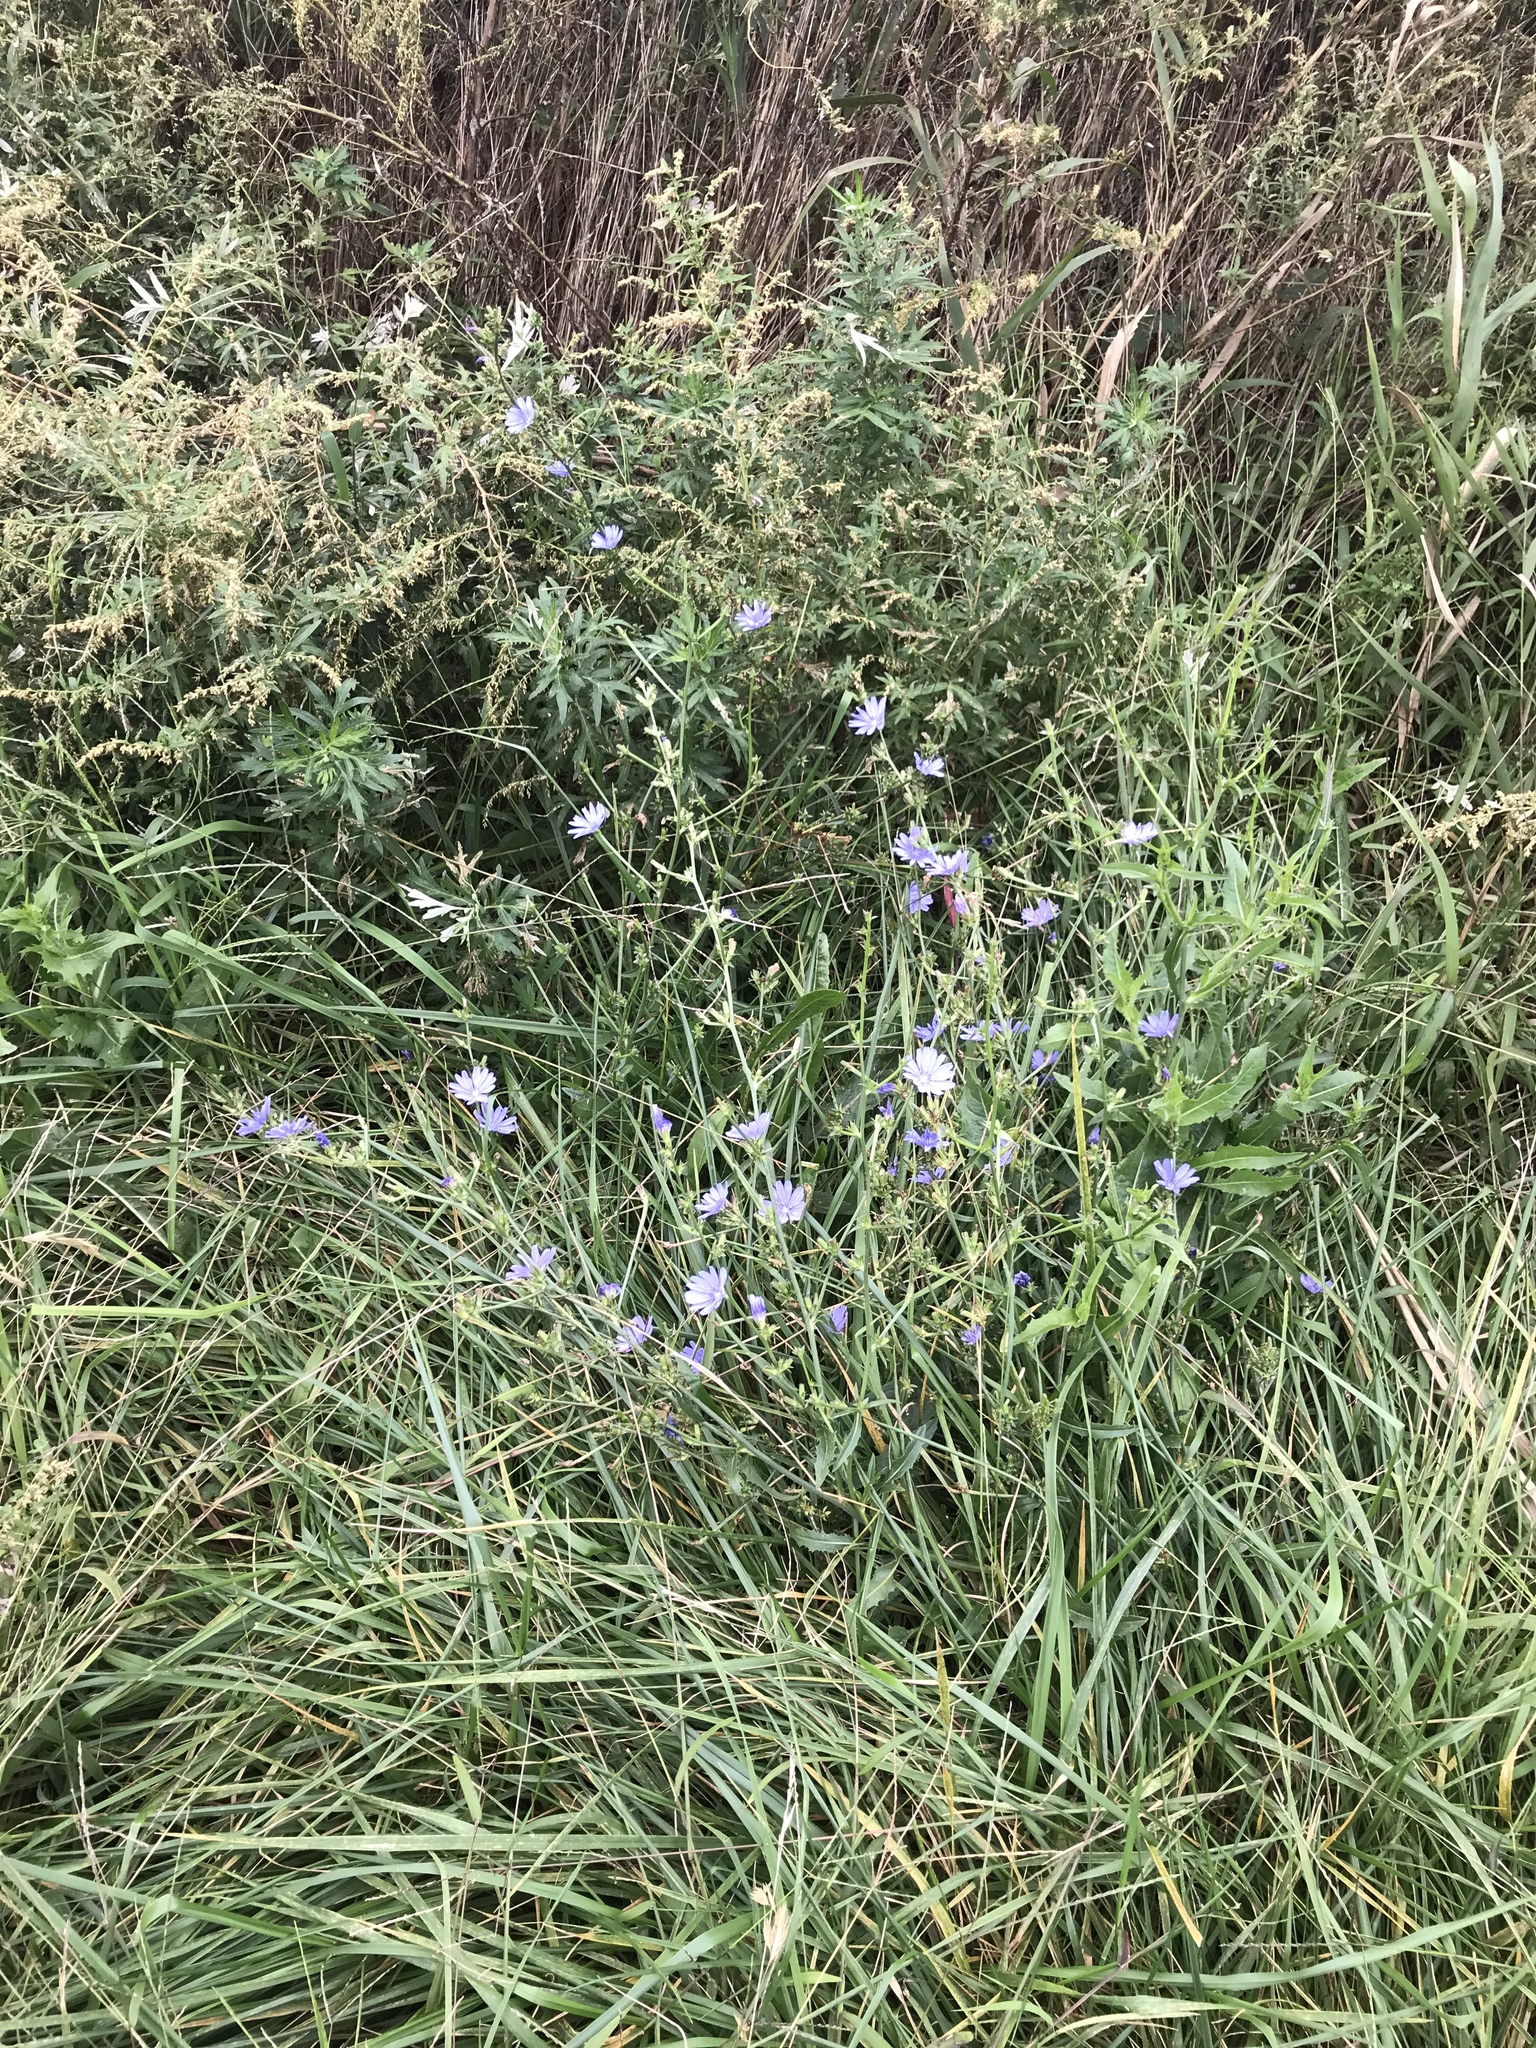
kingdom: Plantae
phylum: Tracheophyta
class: Magnoliopsida
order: Asterales
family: Asteraceae
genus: Cichorium
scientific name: Cichorium intybus
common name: Chicory
